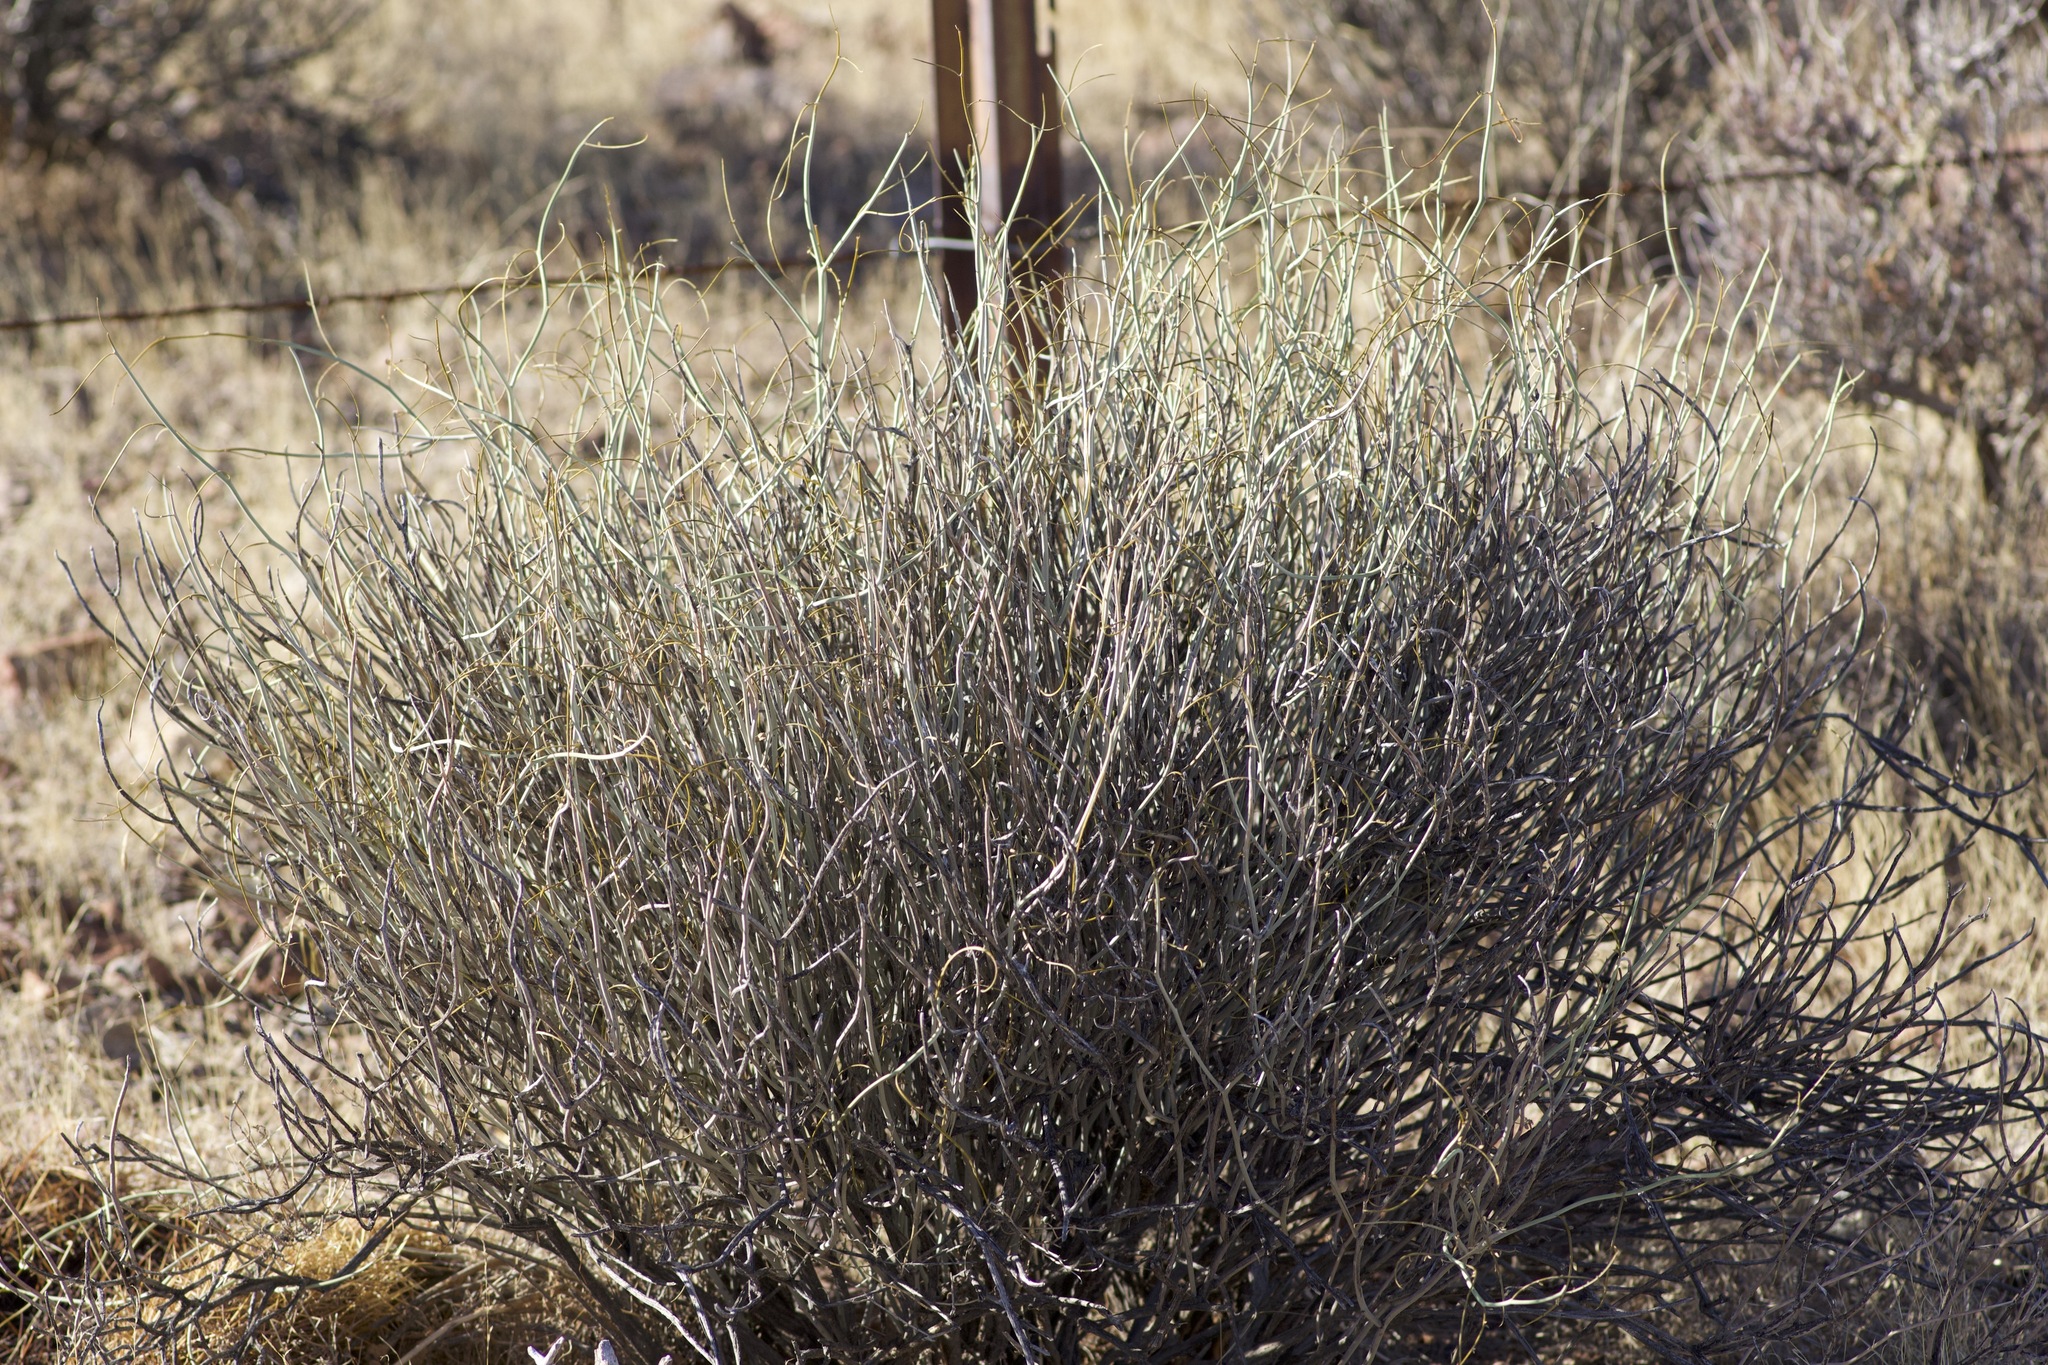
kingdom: Plantae
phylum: Tracheophyta
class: Magnoliopsida
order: Fabales
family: Fabaceae
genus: Senna
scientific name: Senna armata
